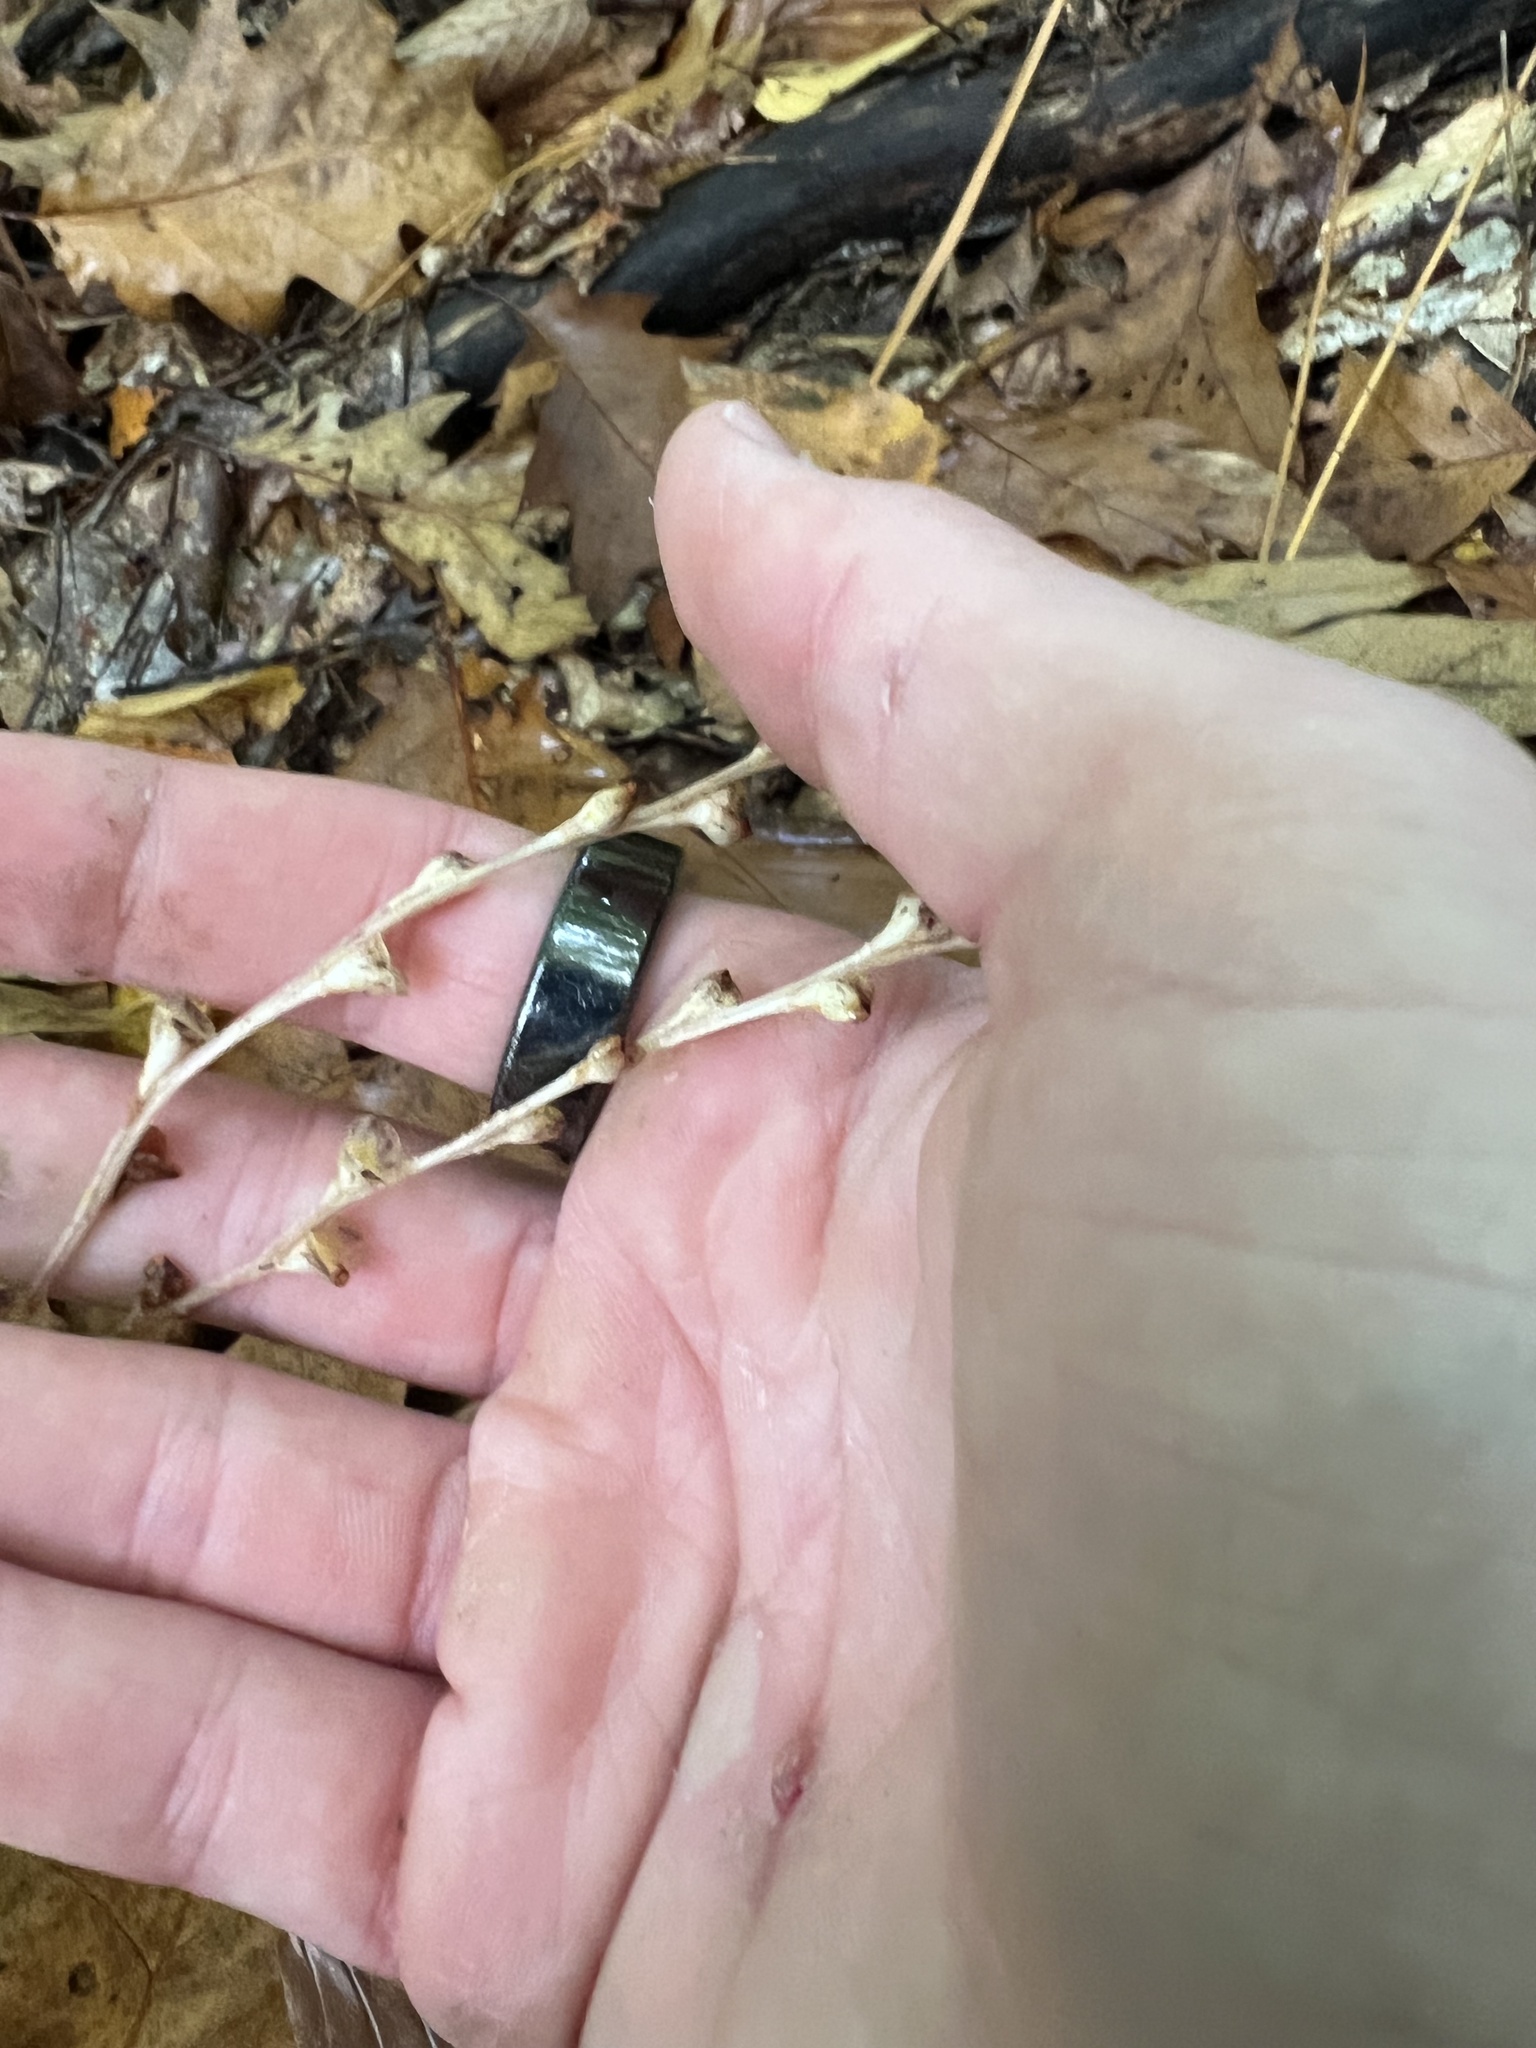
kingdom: Plantae
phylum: Tracheophyta
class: Magnoliopsida
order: Lamiales
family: Orobanchaceae
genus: Epifagus
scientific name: Epifagus virginiana
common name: Beechdrops
